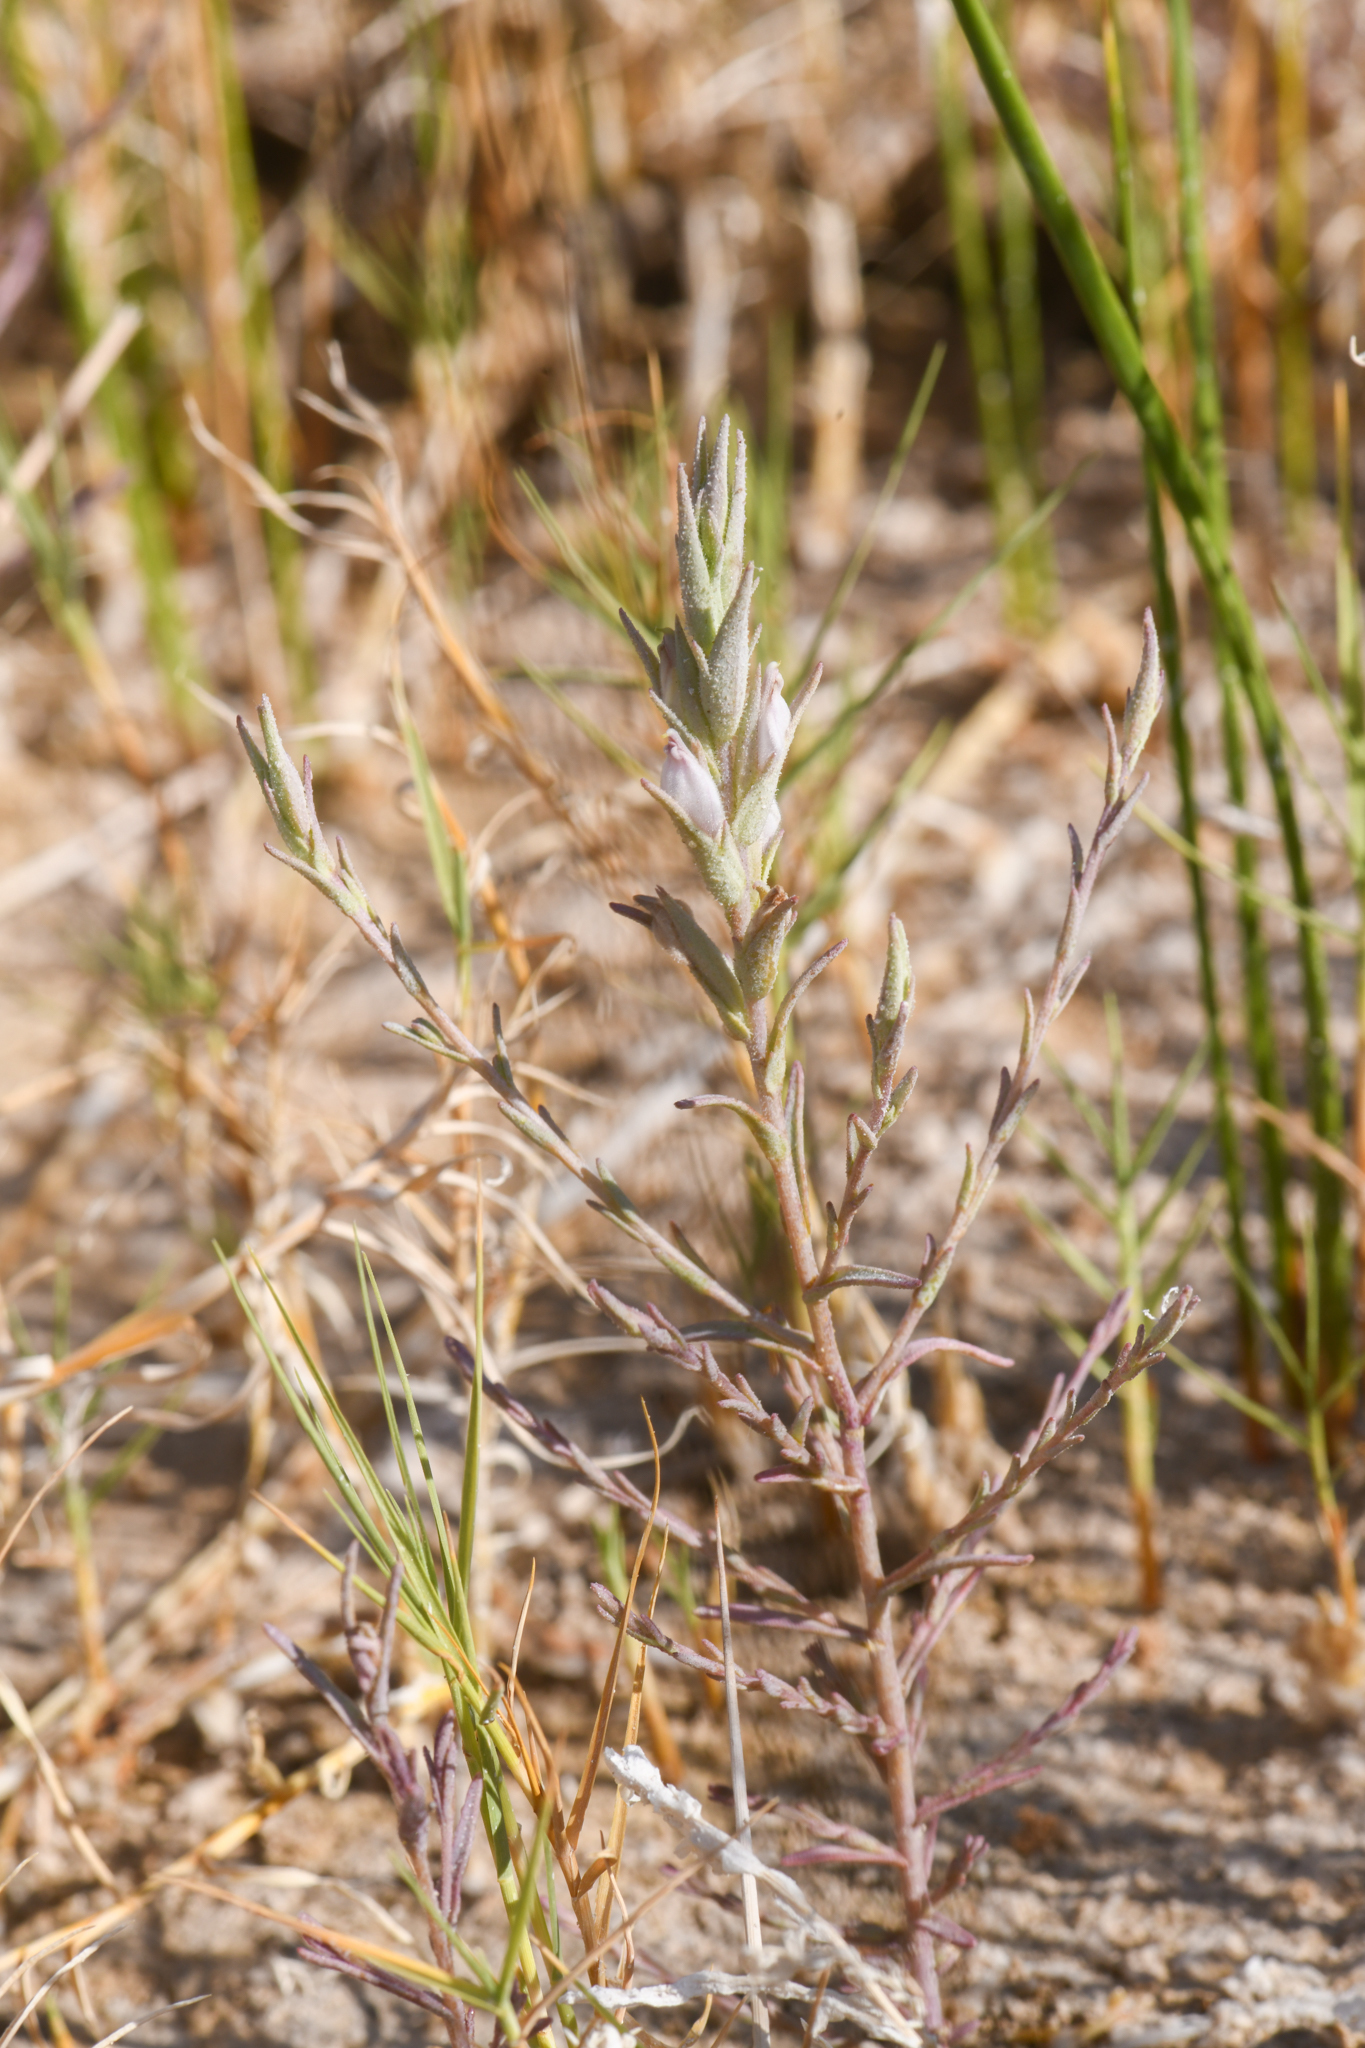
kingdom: Plantae
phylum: Tracheophyta
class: Magnoliopsida
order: Lamiales
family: Orobanchaceae
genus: Chloropyron
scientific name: Chloropyron tecopense
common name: Tecopa salty bird's-beak
